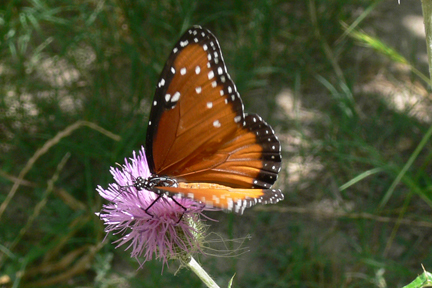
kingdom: Animalia
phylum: Arthropoda
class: Insecta
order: Lepidoptera
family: Nymphalidae
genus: Danaus
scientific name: Danaus gilippus
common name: Queen
